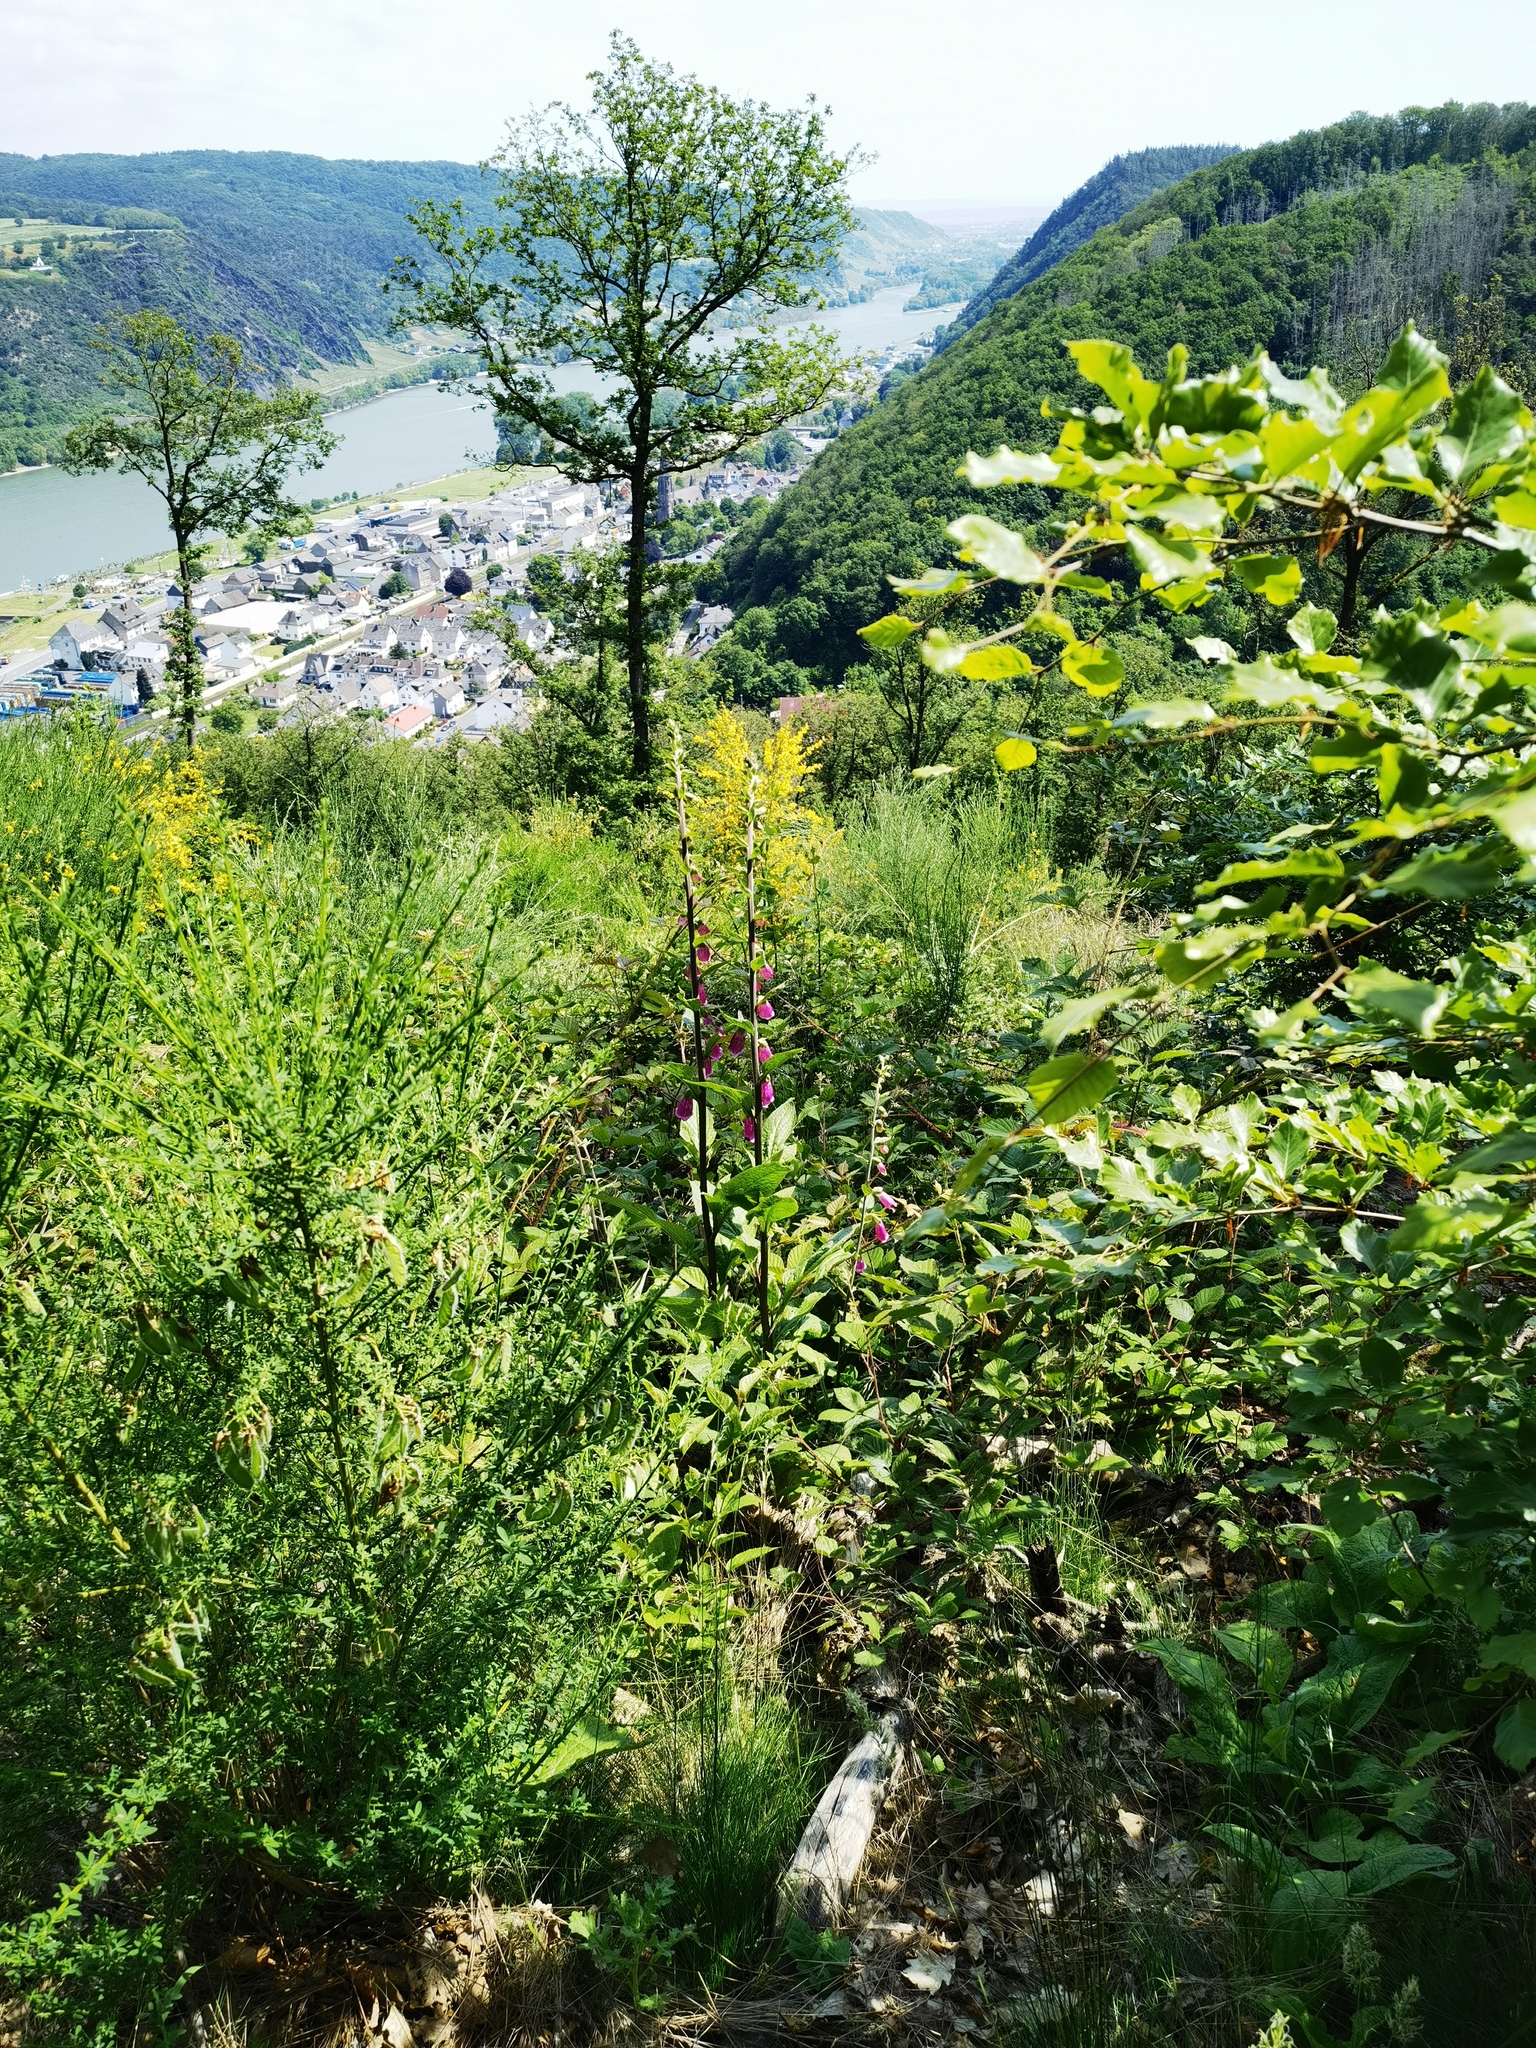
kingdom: Plantae
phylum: Tracheophyta
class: Magnoliopsida
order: Lamiales
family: Plantaginaceae
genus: Digitalis
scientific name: Digitalis purpurea
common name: Foxglove
